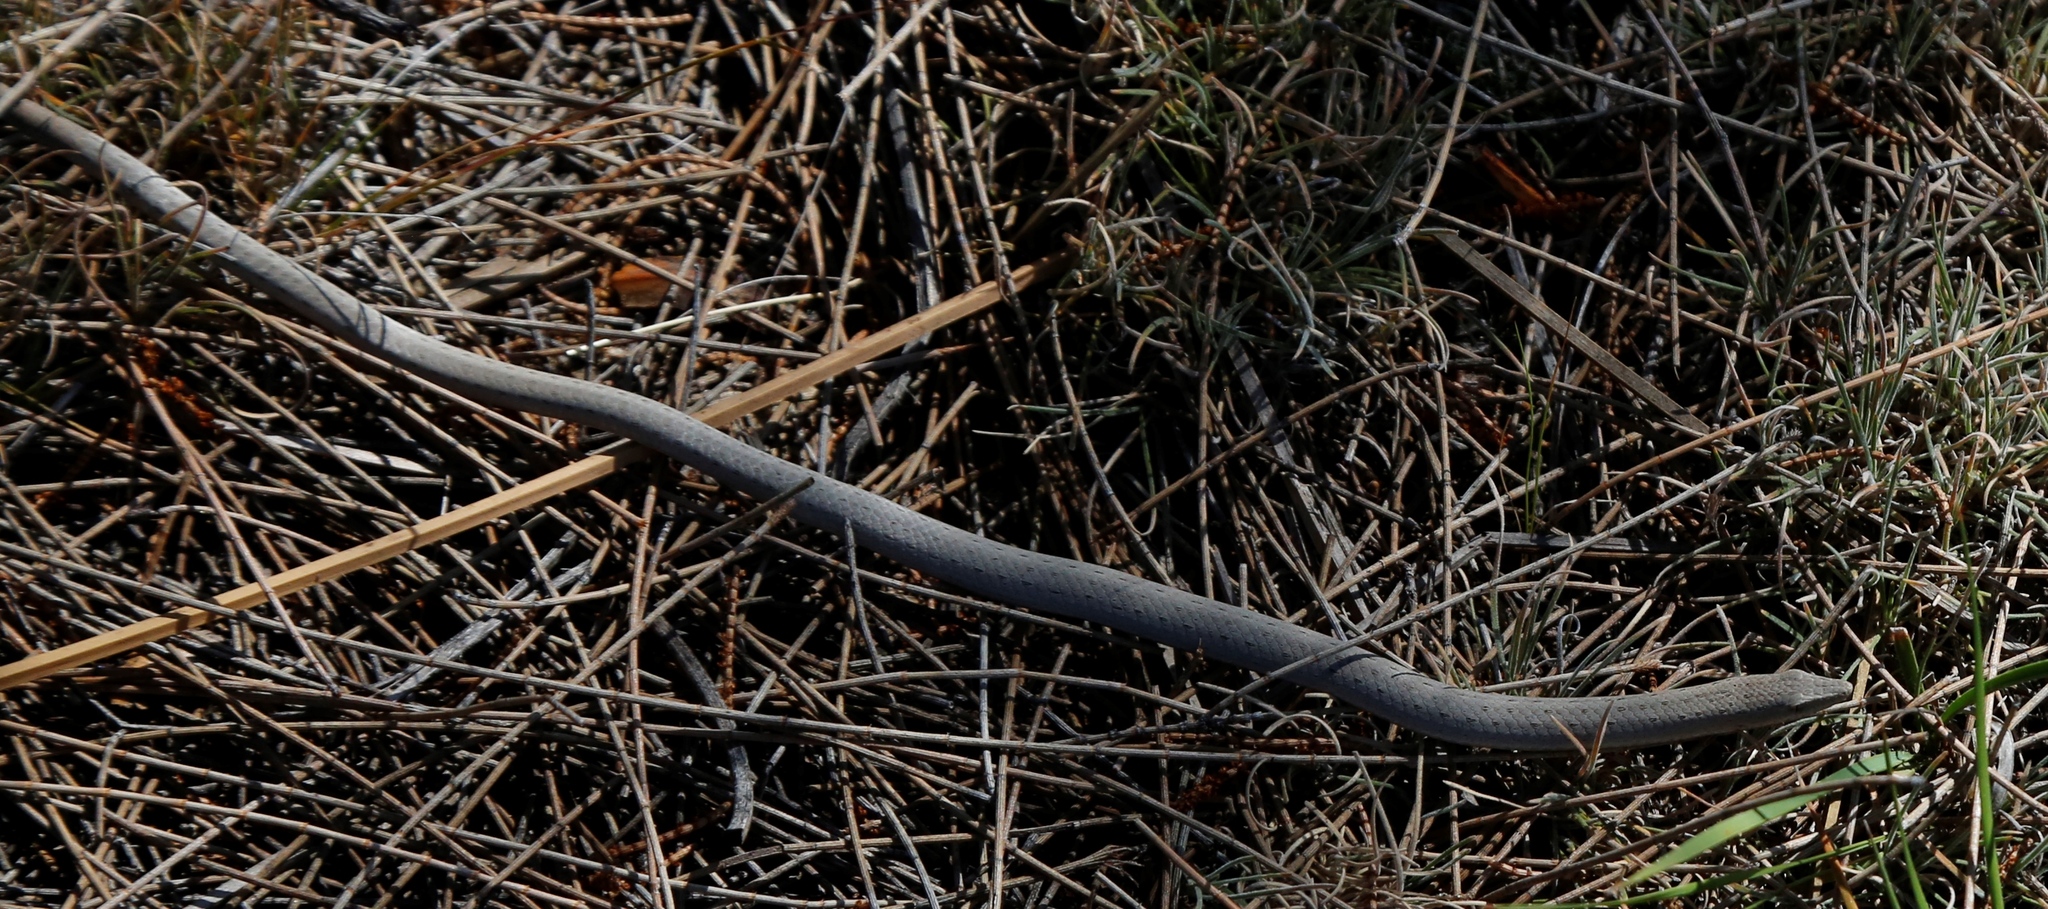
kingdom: Animalia
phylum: Chordata
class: Squamata
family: Pygopodidae
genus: Lialis
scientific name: Lialis burtonis
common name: Burton's legless lizard
